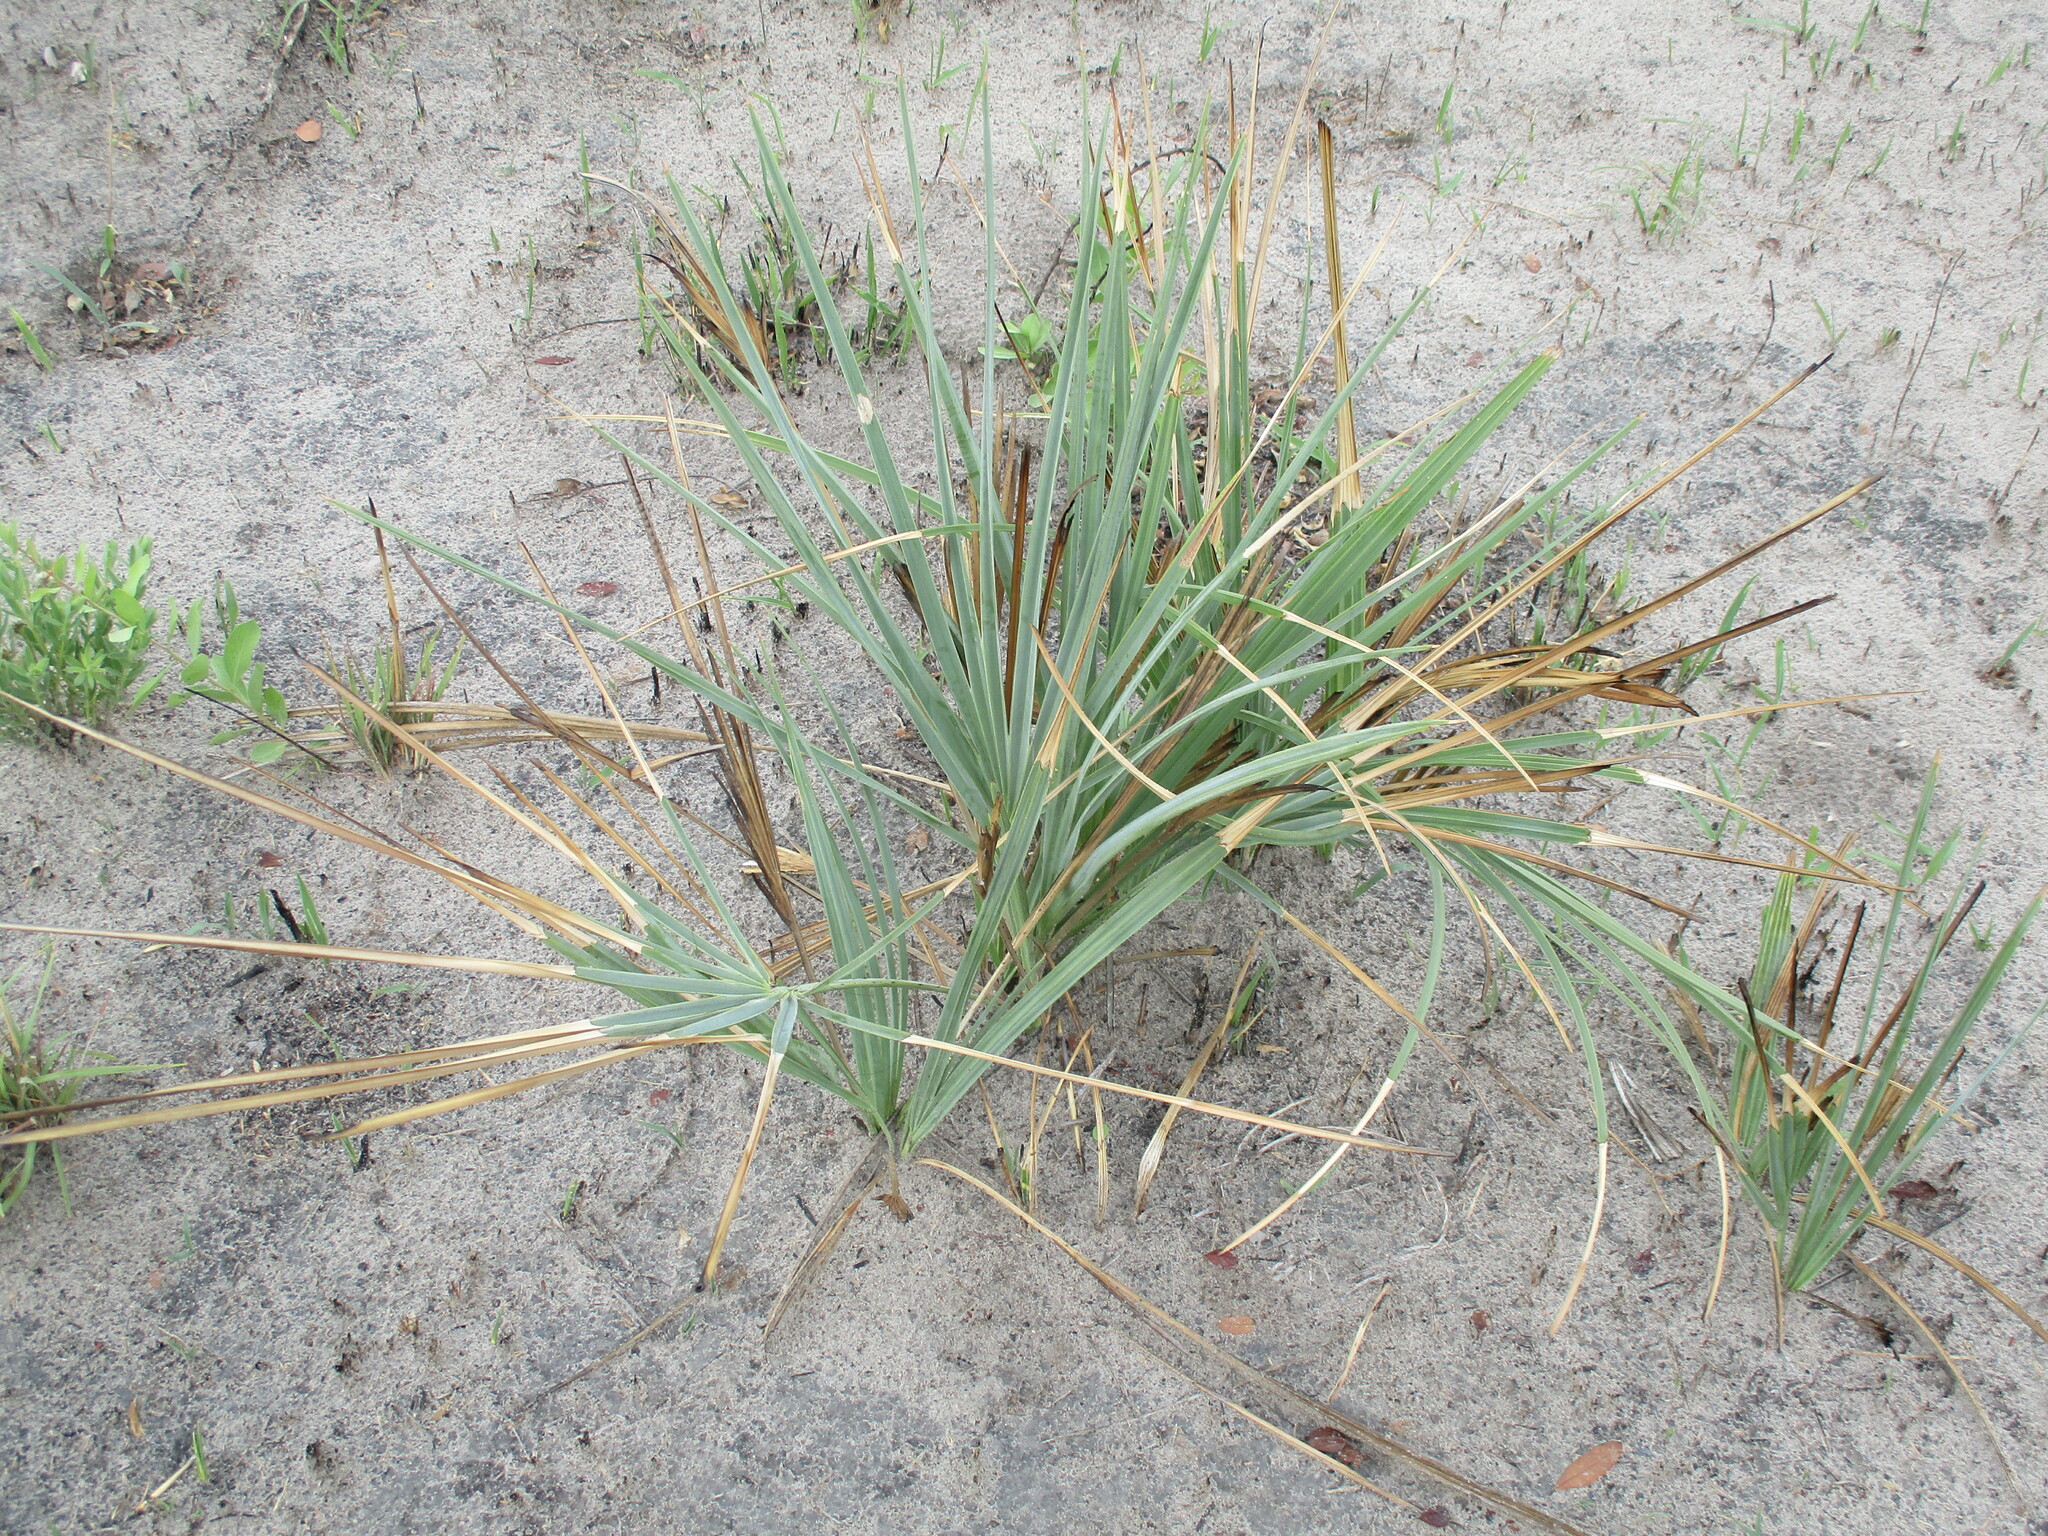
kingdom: Plantae
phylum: Tracheophyta
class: Liliopsida
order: Arecales
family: Arecaceae
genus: Hyphaene
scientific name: Hyphaene petersiana
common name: African ivory nut palm
